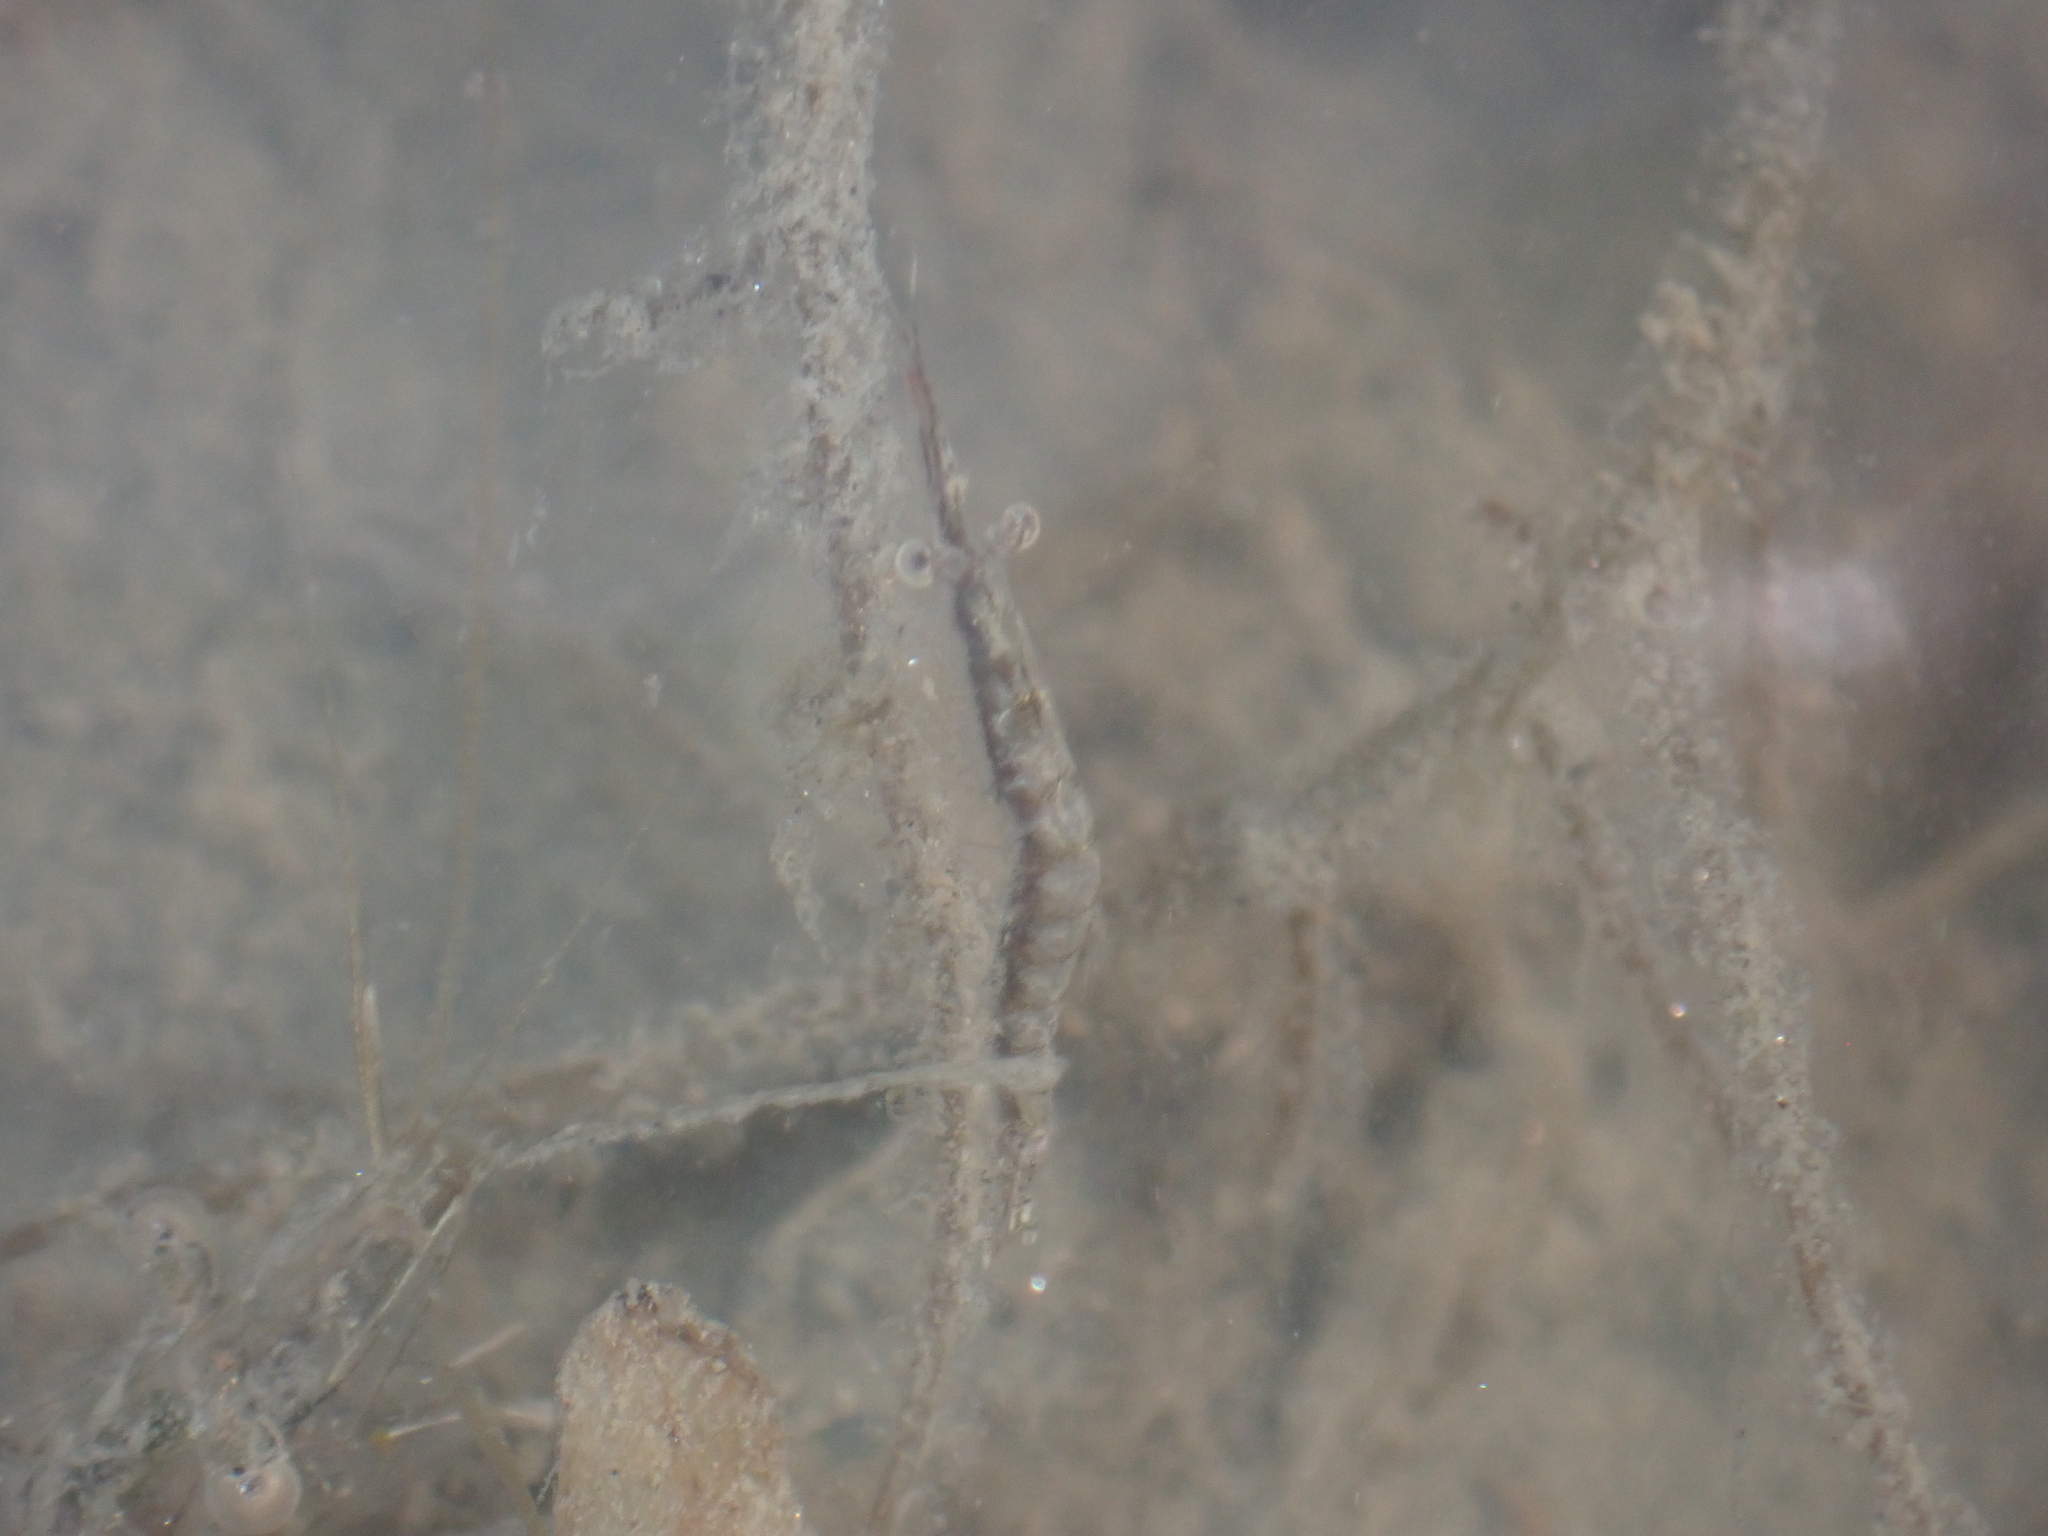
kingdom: Animalia
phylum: Arthropoda
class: Malacostraca
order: Mysida
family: Mysidae
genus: Praunus
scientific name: Praunus flexuosus
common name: Chameleon shrimp
